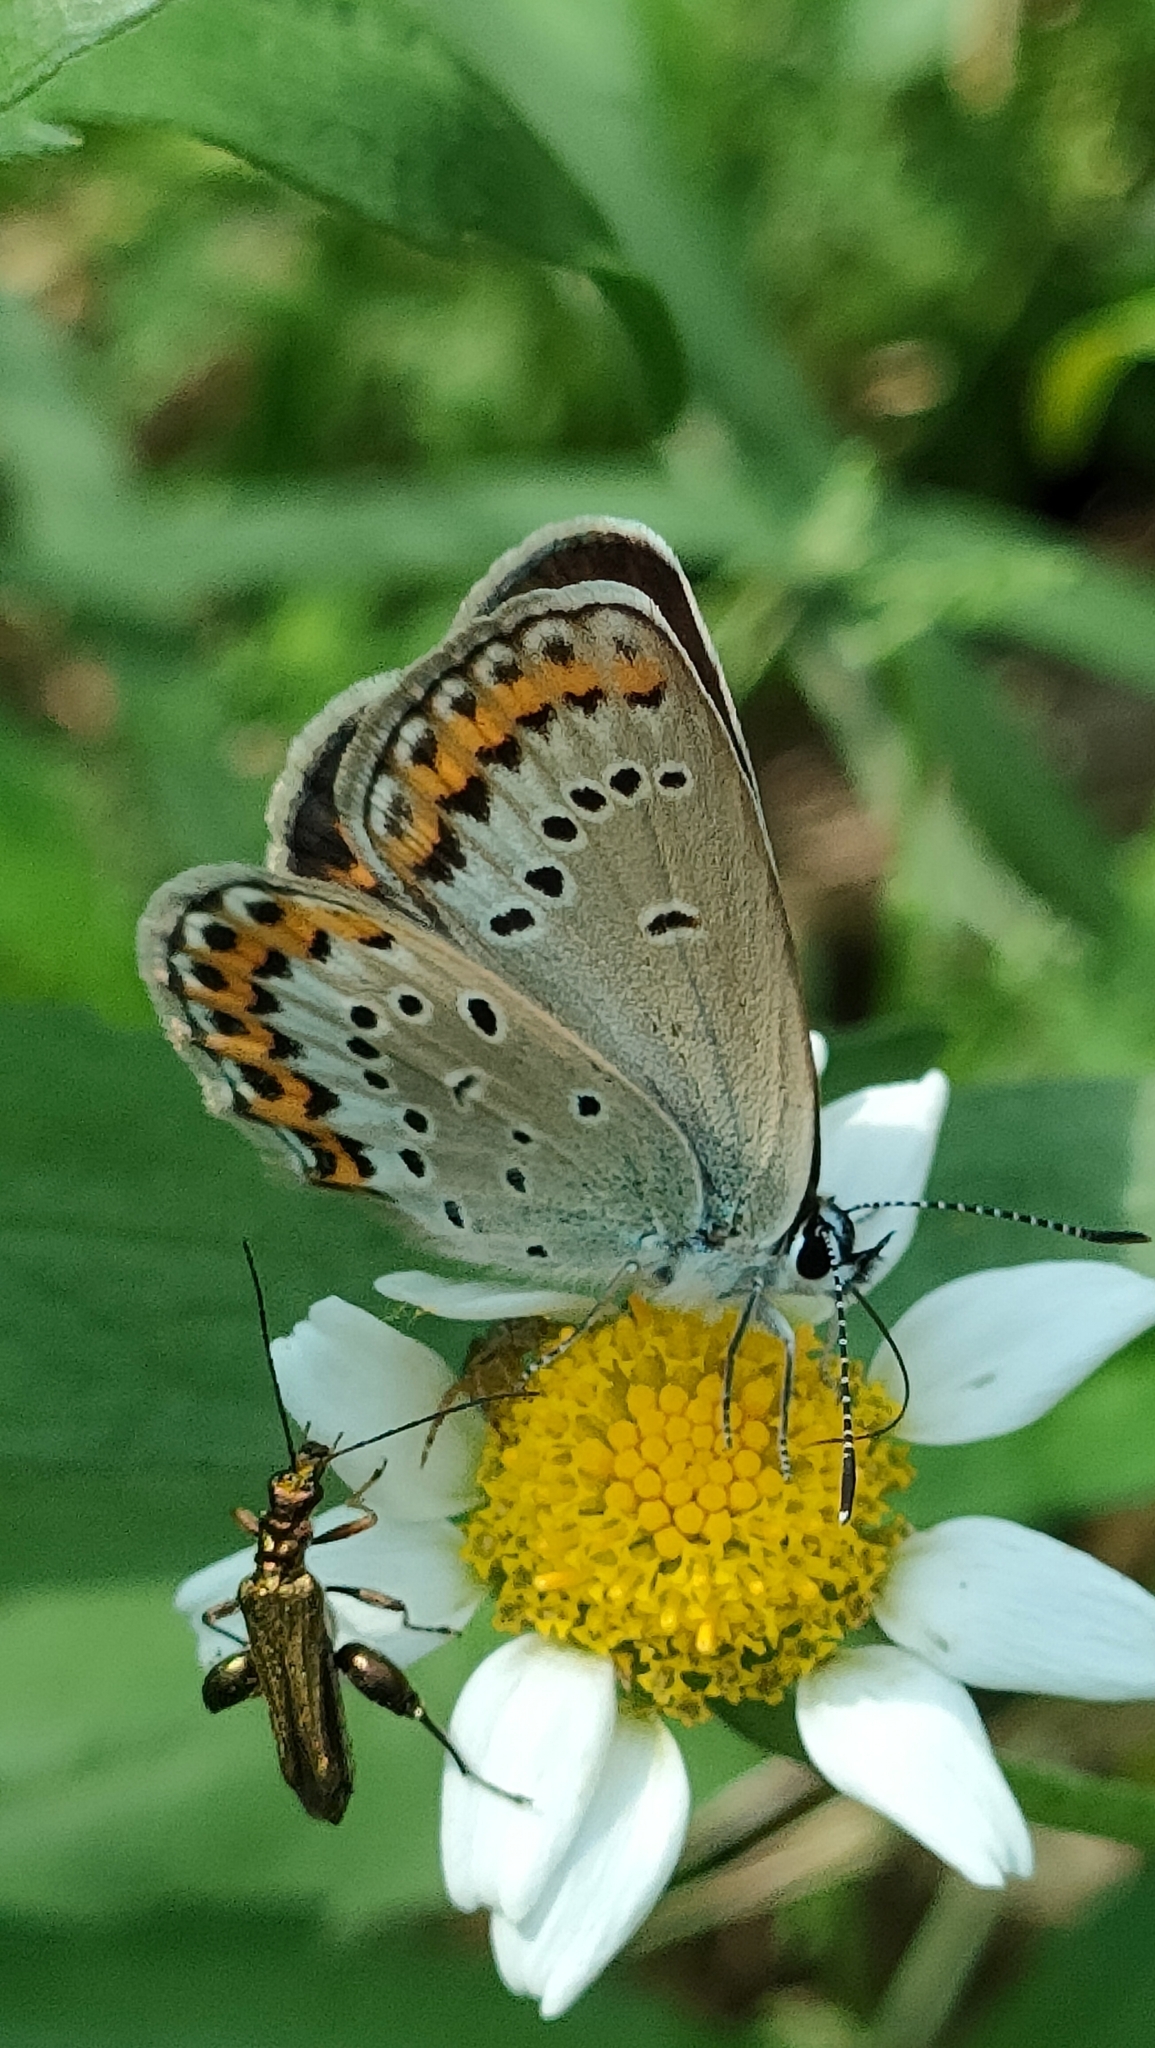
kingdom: Animalia
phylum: Arthropoda
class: Insecta
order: Lepidoptera
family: Lycaenidae
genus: Plebejus
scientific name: Plebejus argyrognomon
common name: Reverdin's blue
